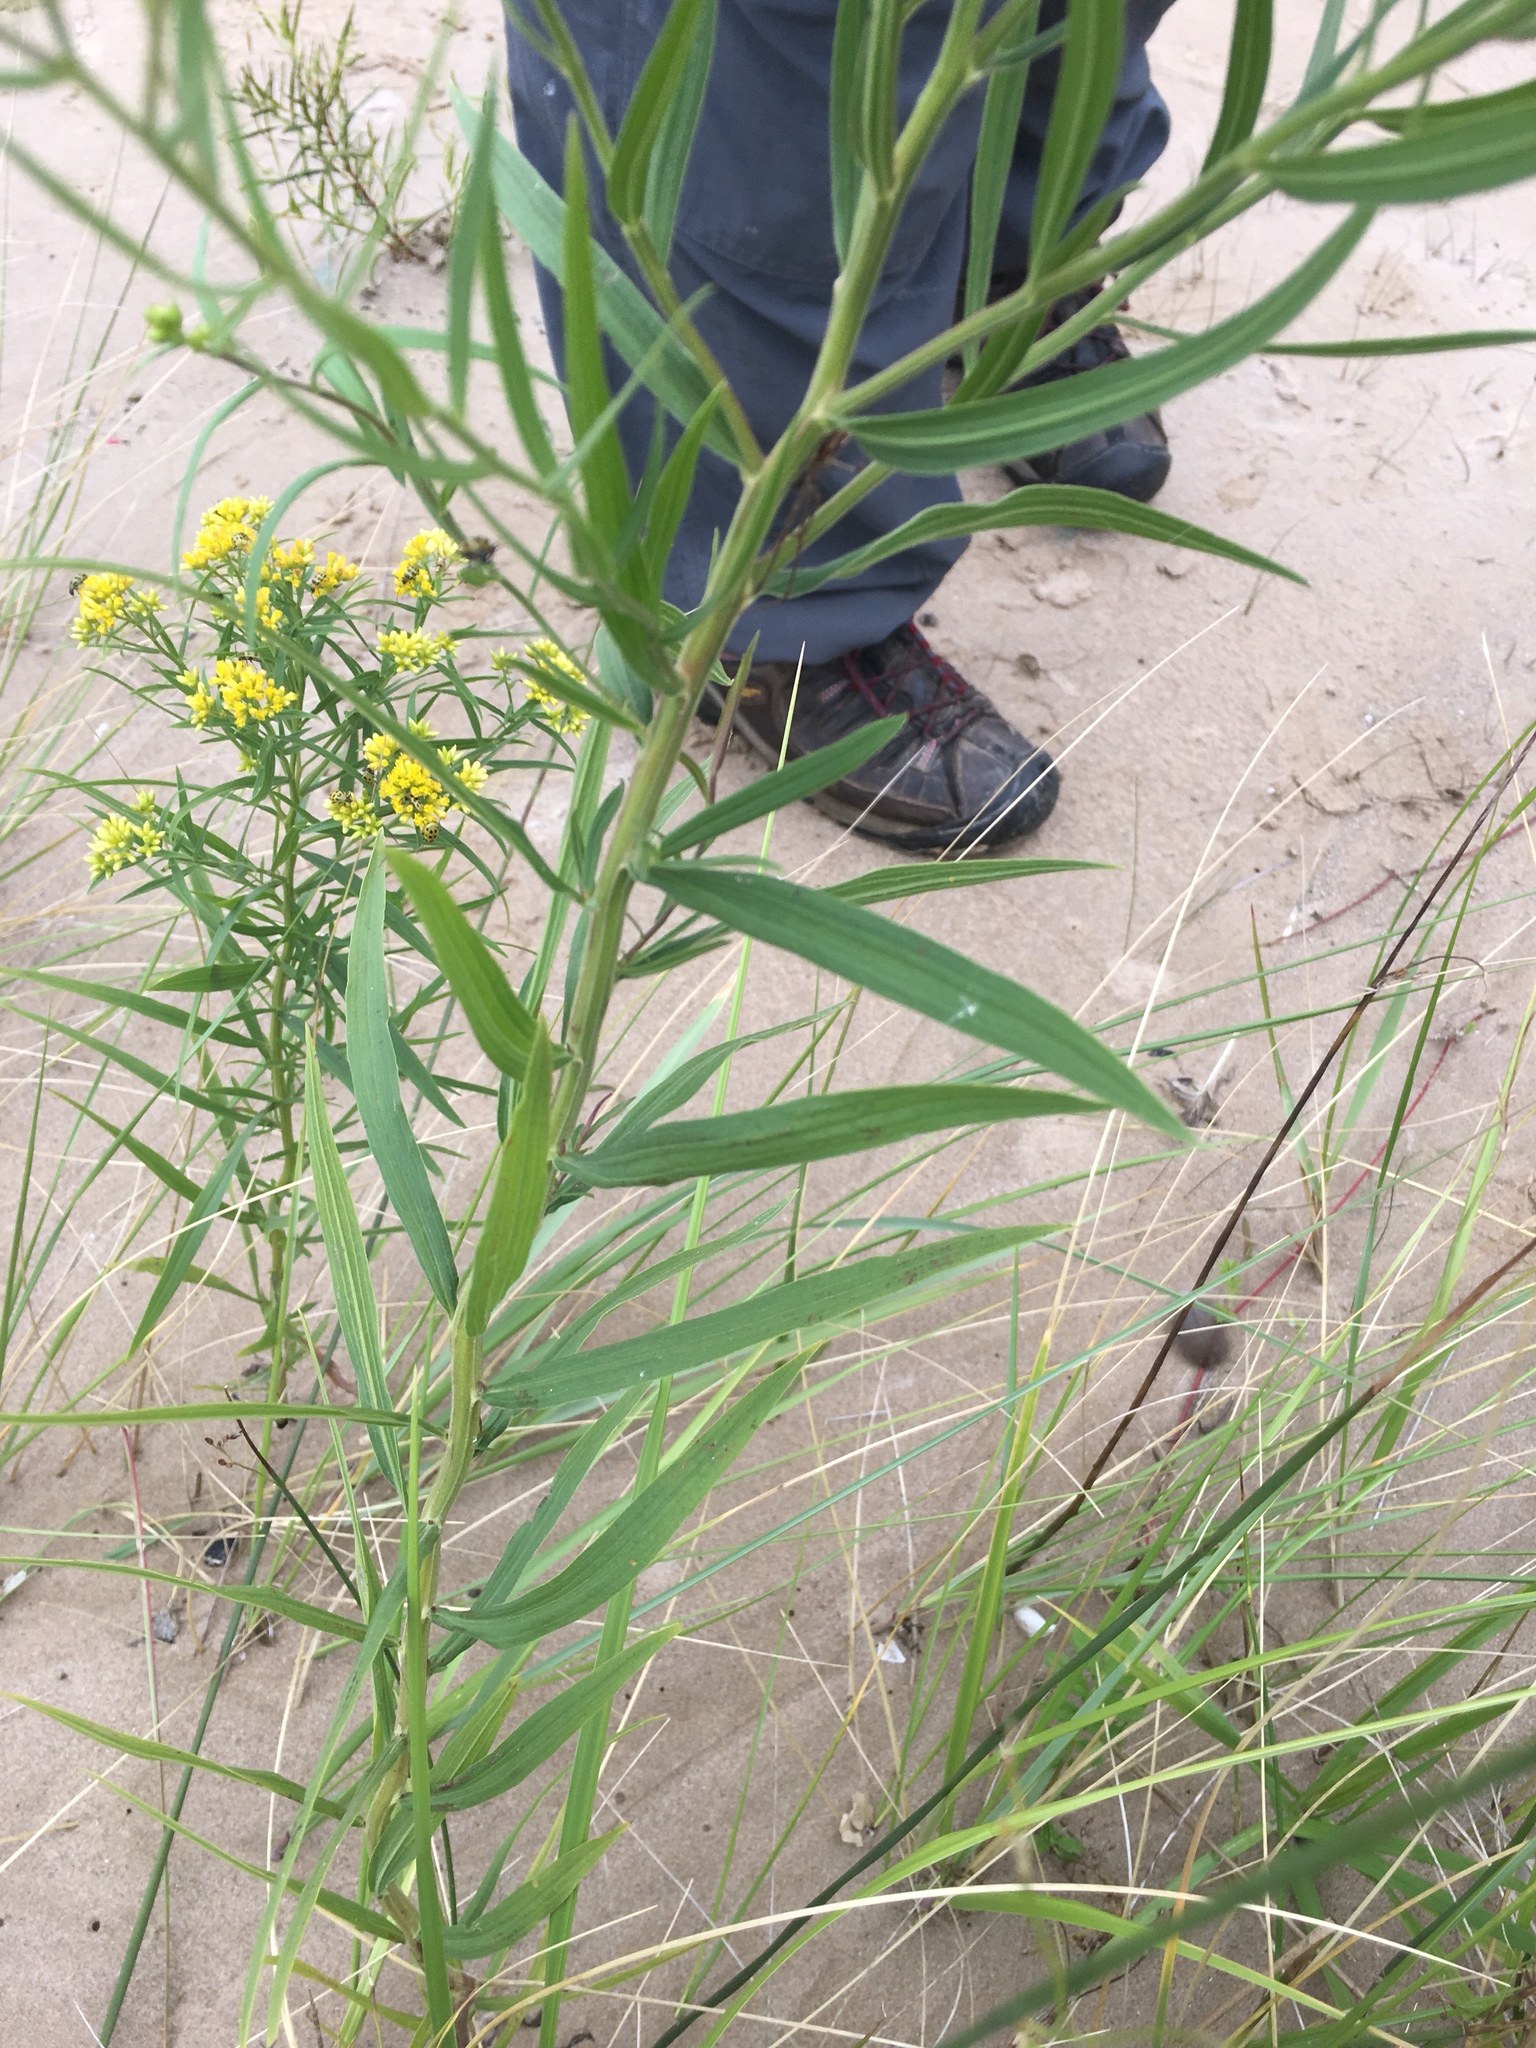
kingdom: Plantae
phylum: Tracheophyta
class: Magnoliopsida
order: Asterales
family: Asteraceae
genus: Euthamia
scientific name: Euthamia graminifolia
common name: Common goldentop
